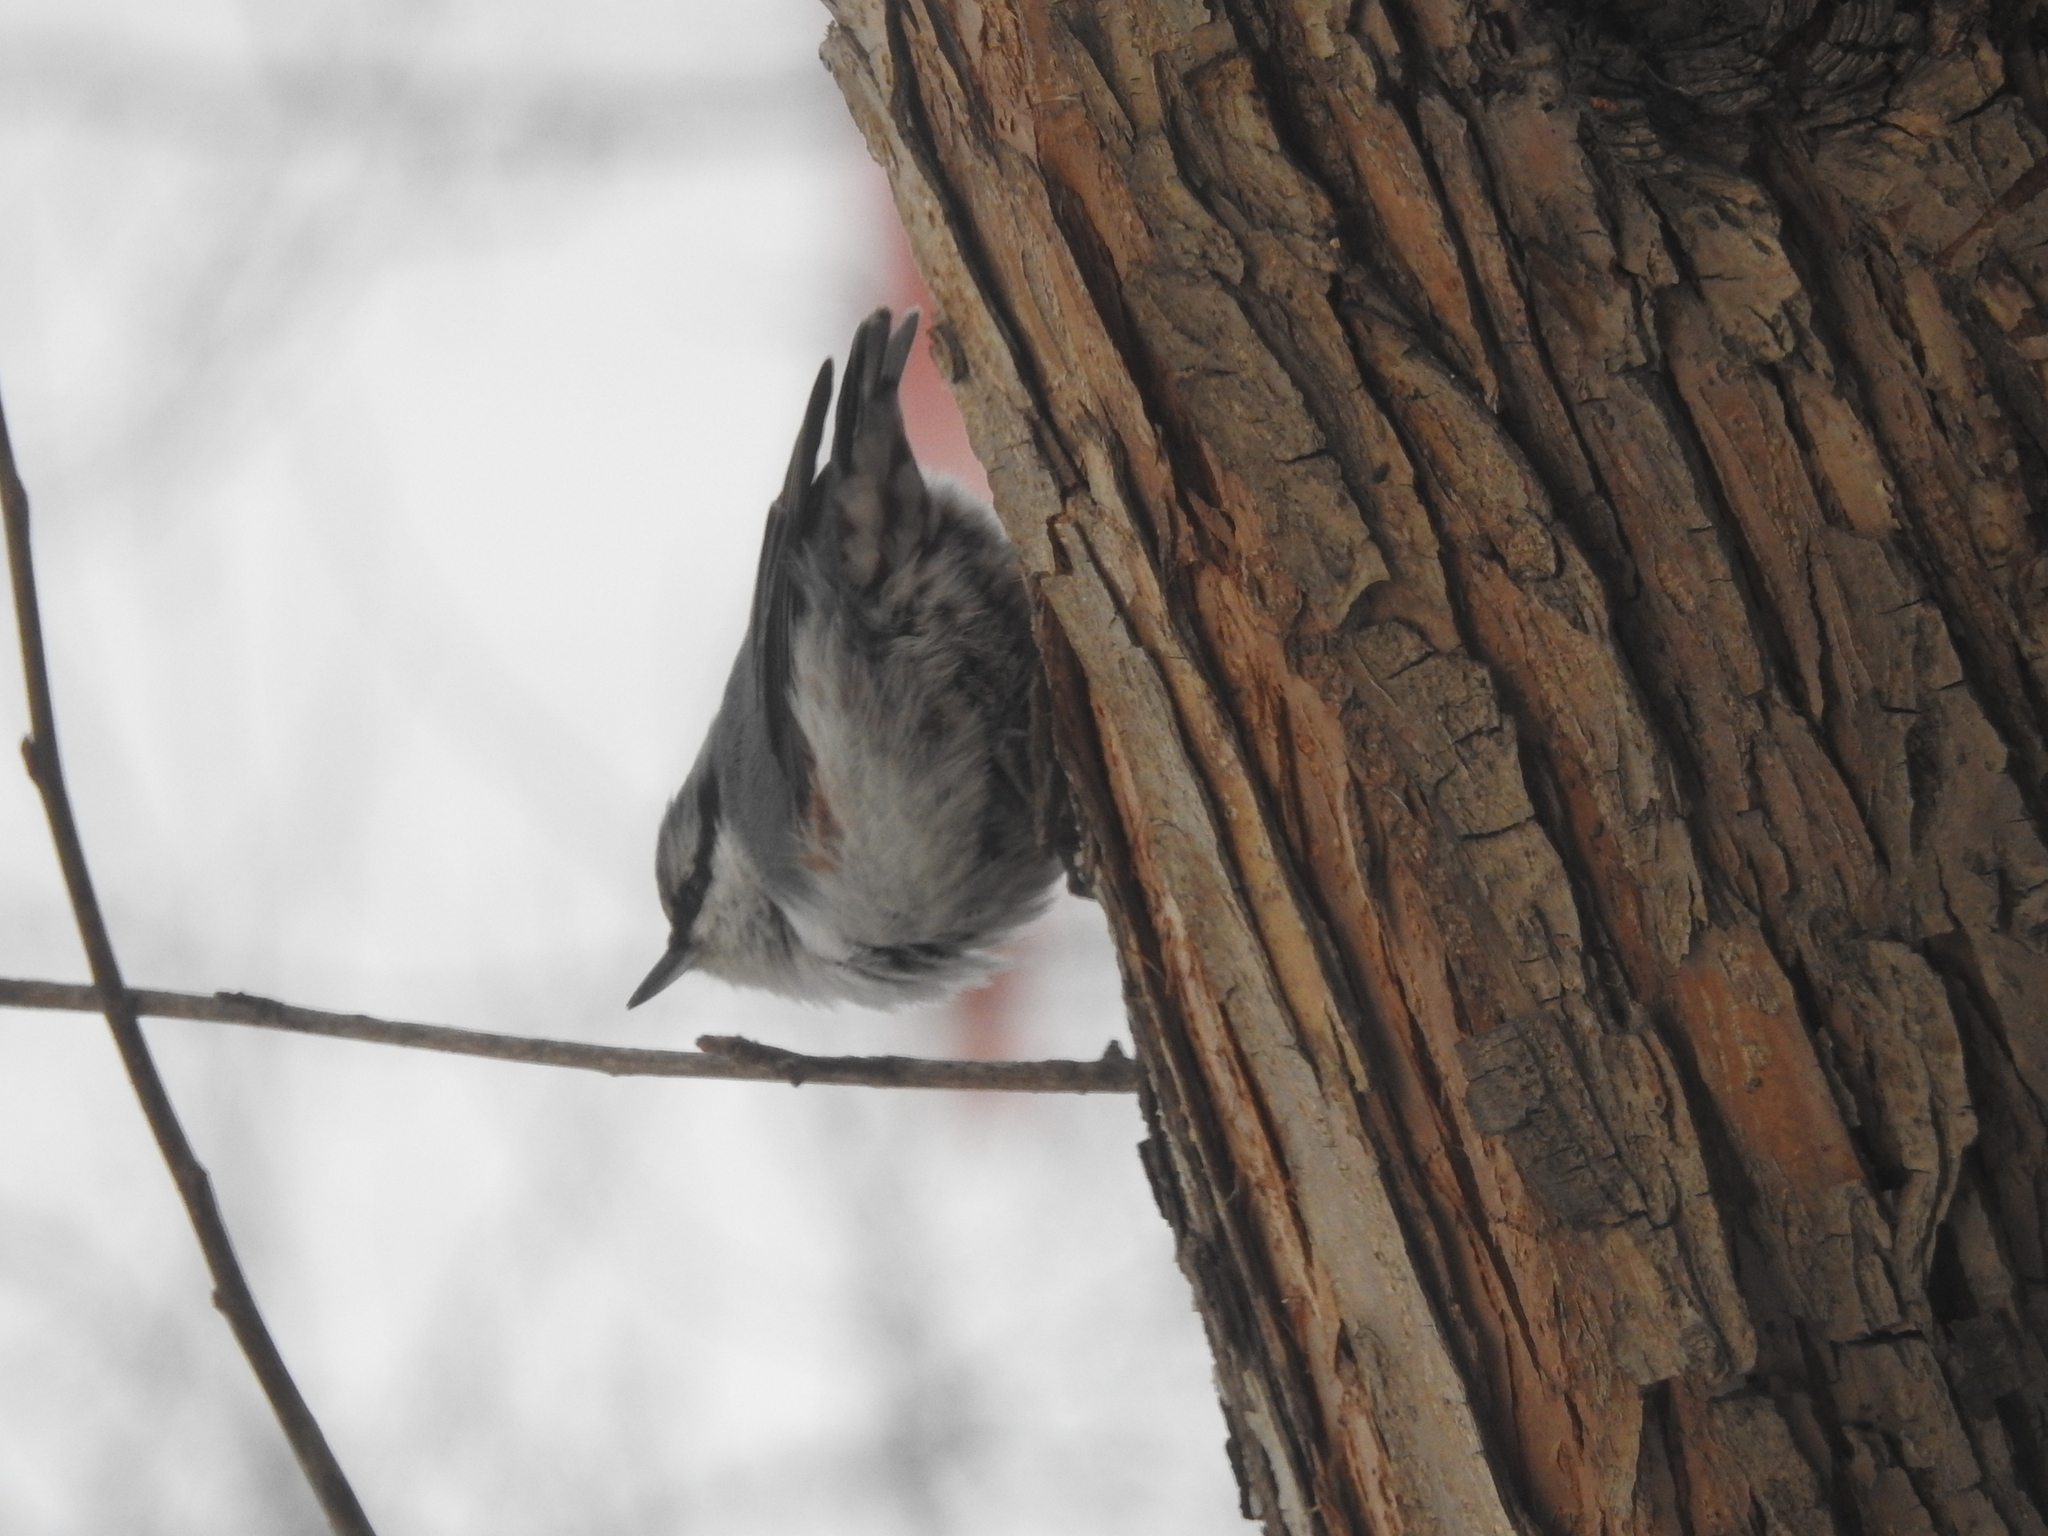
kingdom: Animalia
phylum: Chordata
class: Aves
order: Passeriformes
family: Sittidae
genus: Sitta
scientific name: Sitta europaea
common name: Eurasian nuthatch
